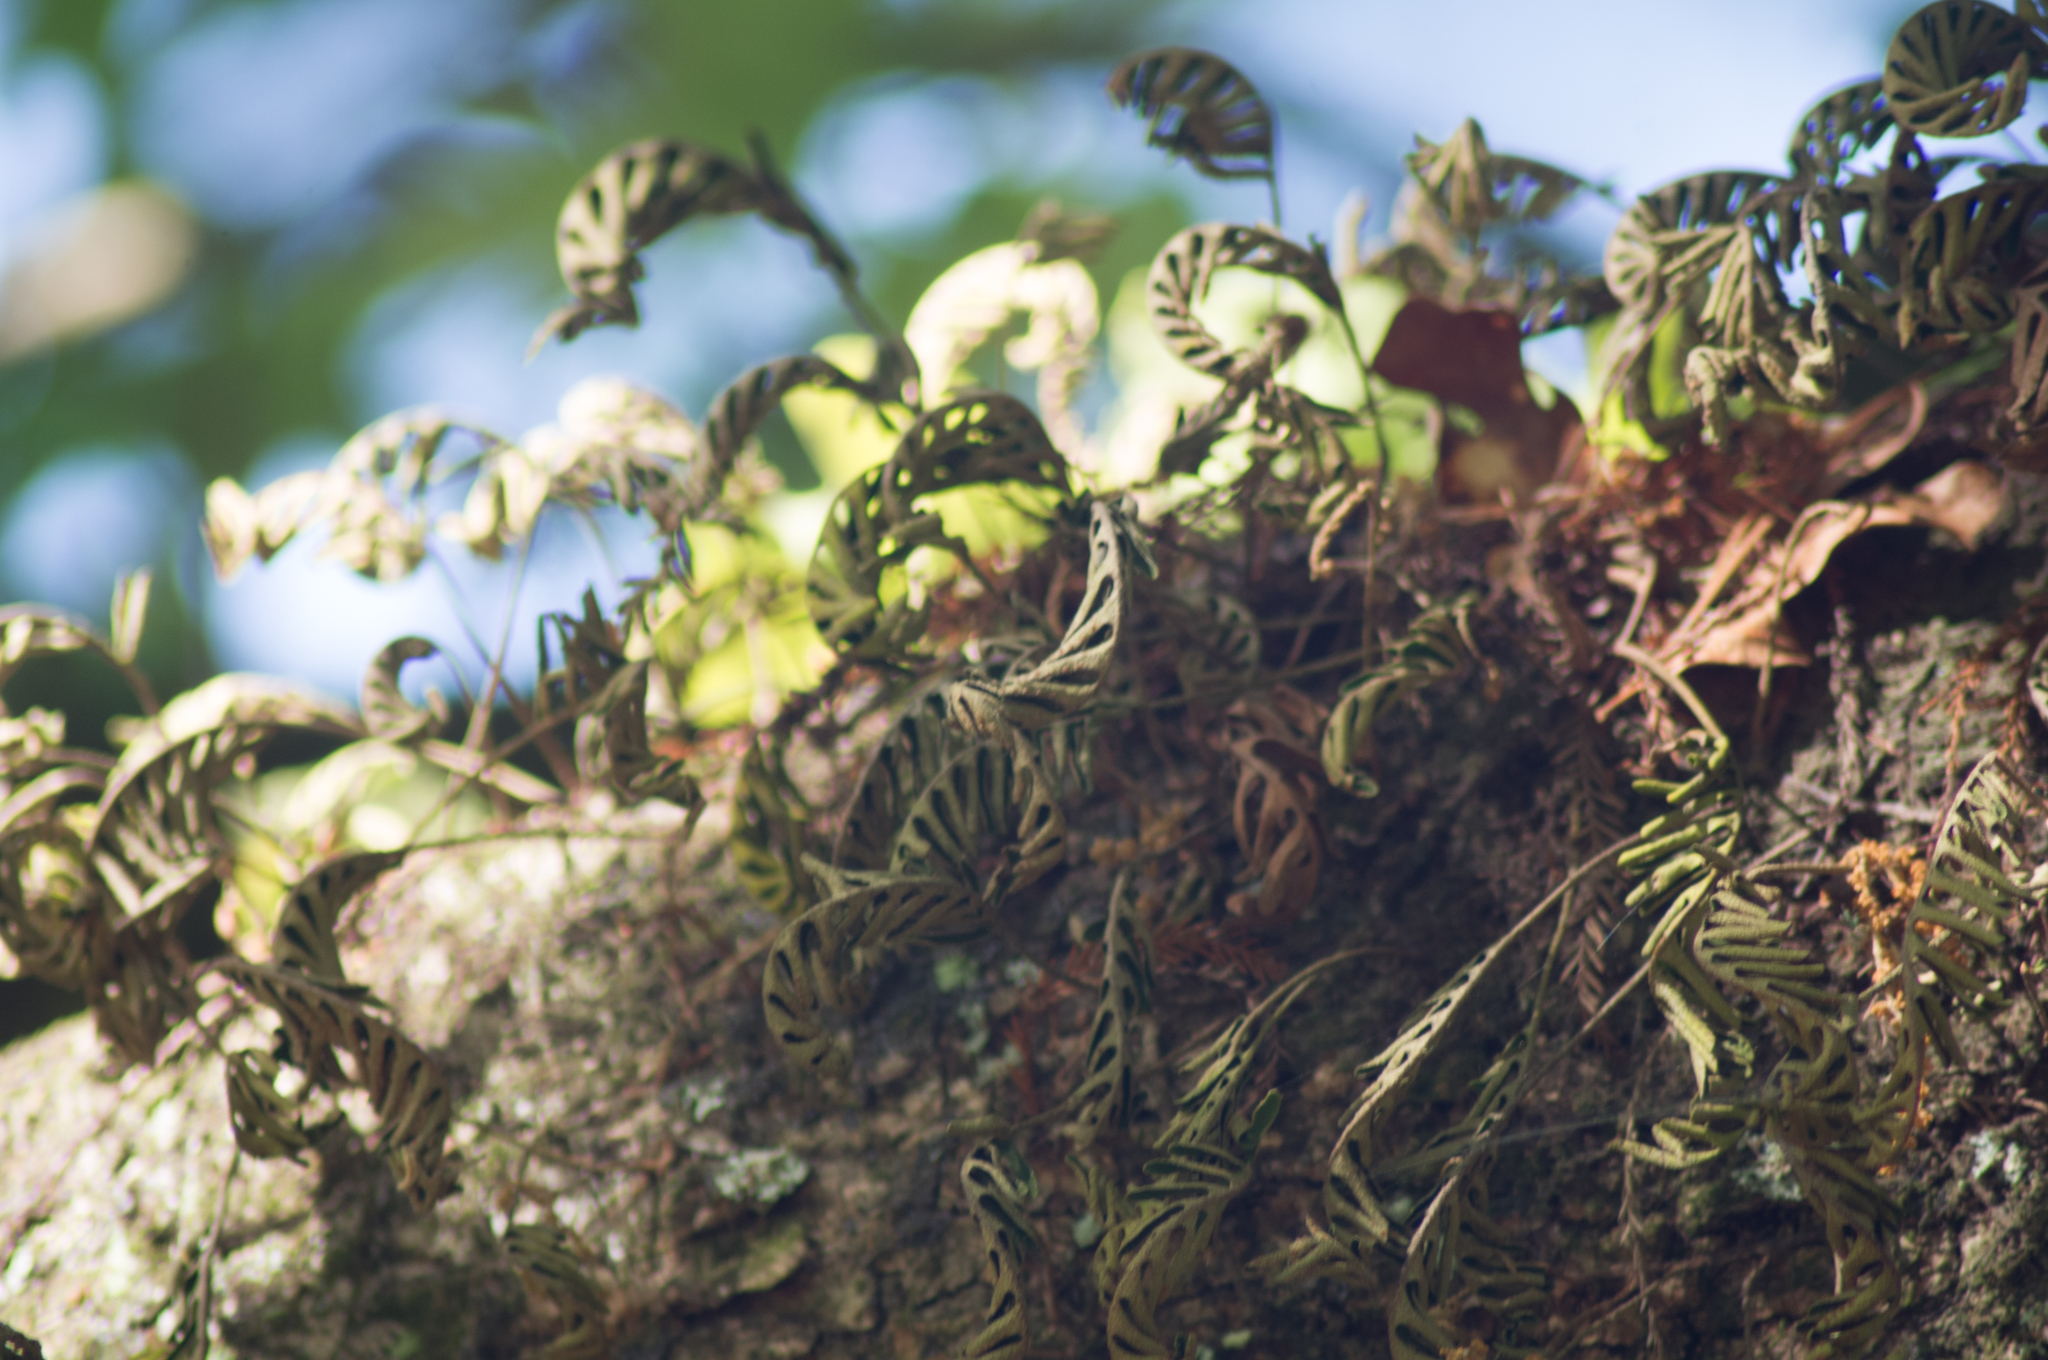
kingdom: Plantae
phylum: Tracheophyta
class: Polypodiopsida
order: Polypodiales
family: Polypodiaceae
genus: Pleopeltis
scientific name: Pleopeltis michauxiana
